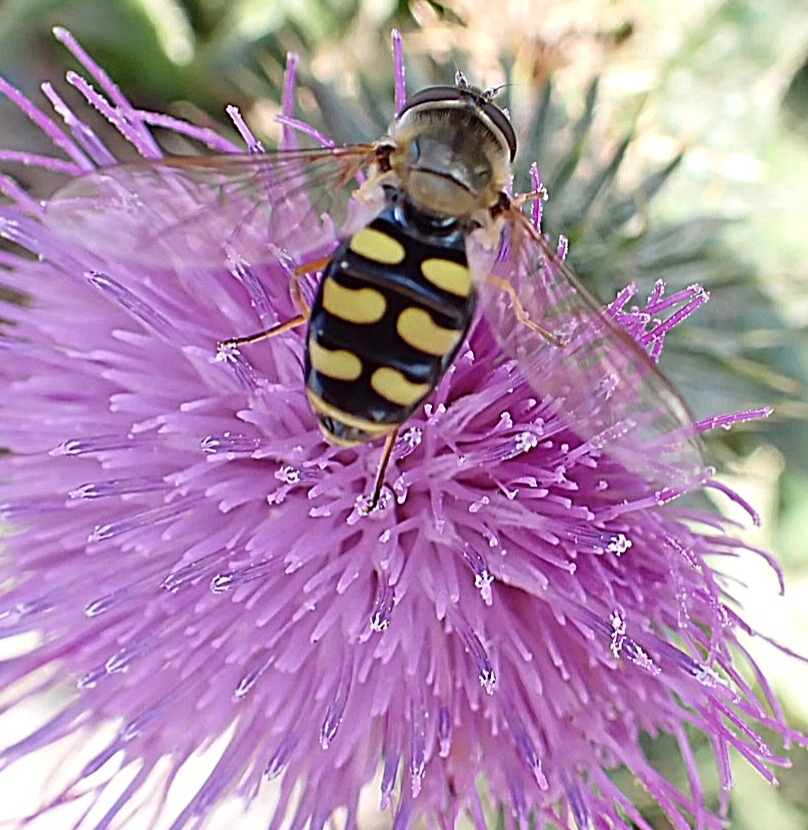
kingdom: Animalia
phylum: Arthropoda
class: Insecta
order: Diptera
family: Syrphidae
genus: Eupeodes
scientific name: Eupeodes
